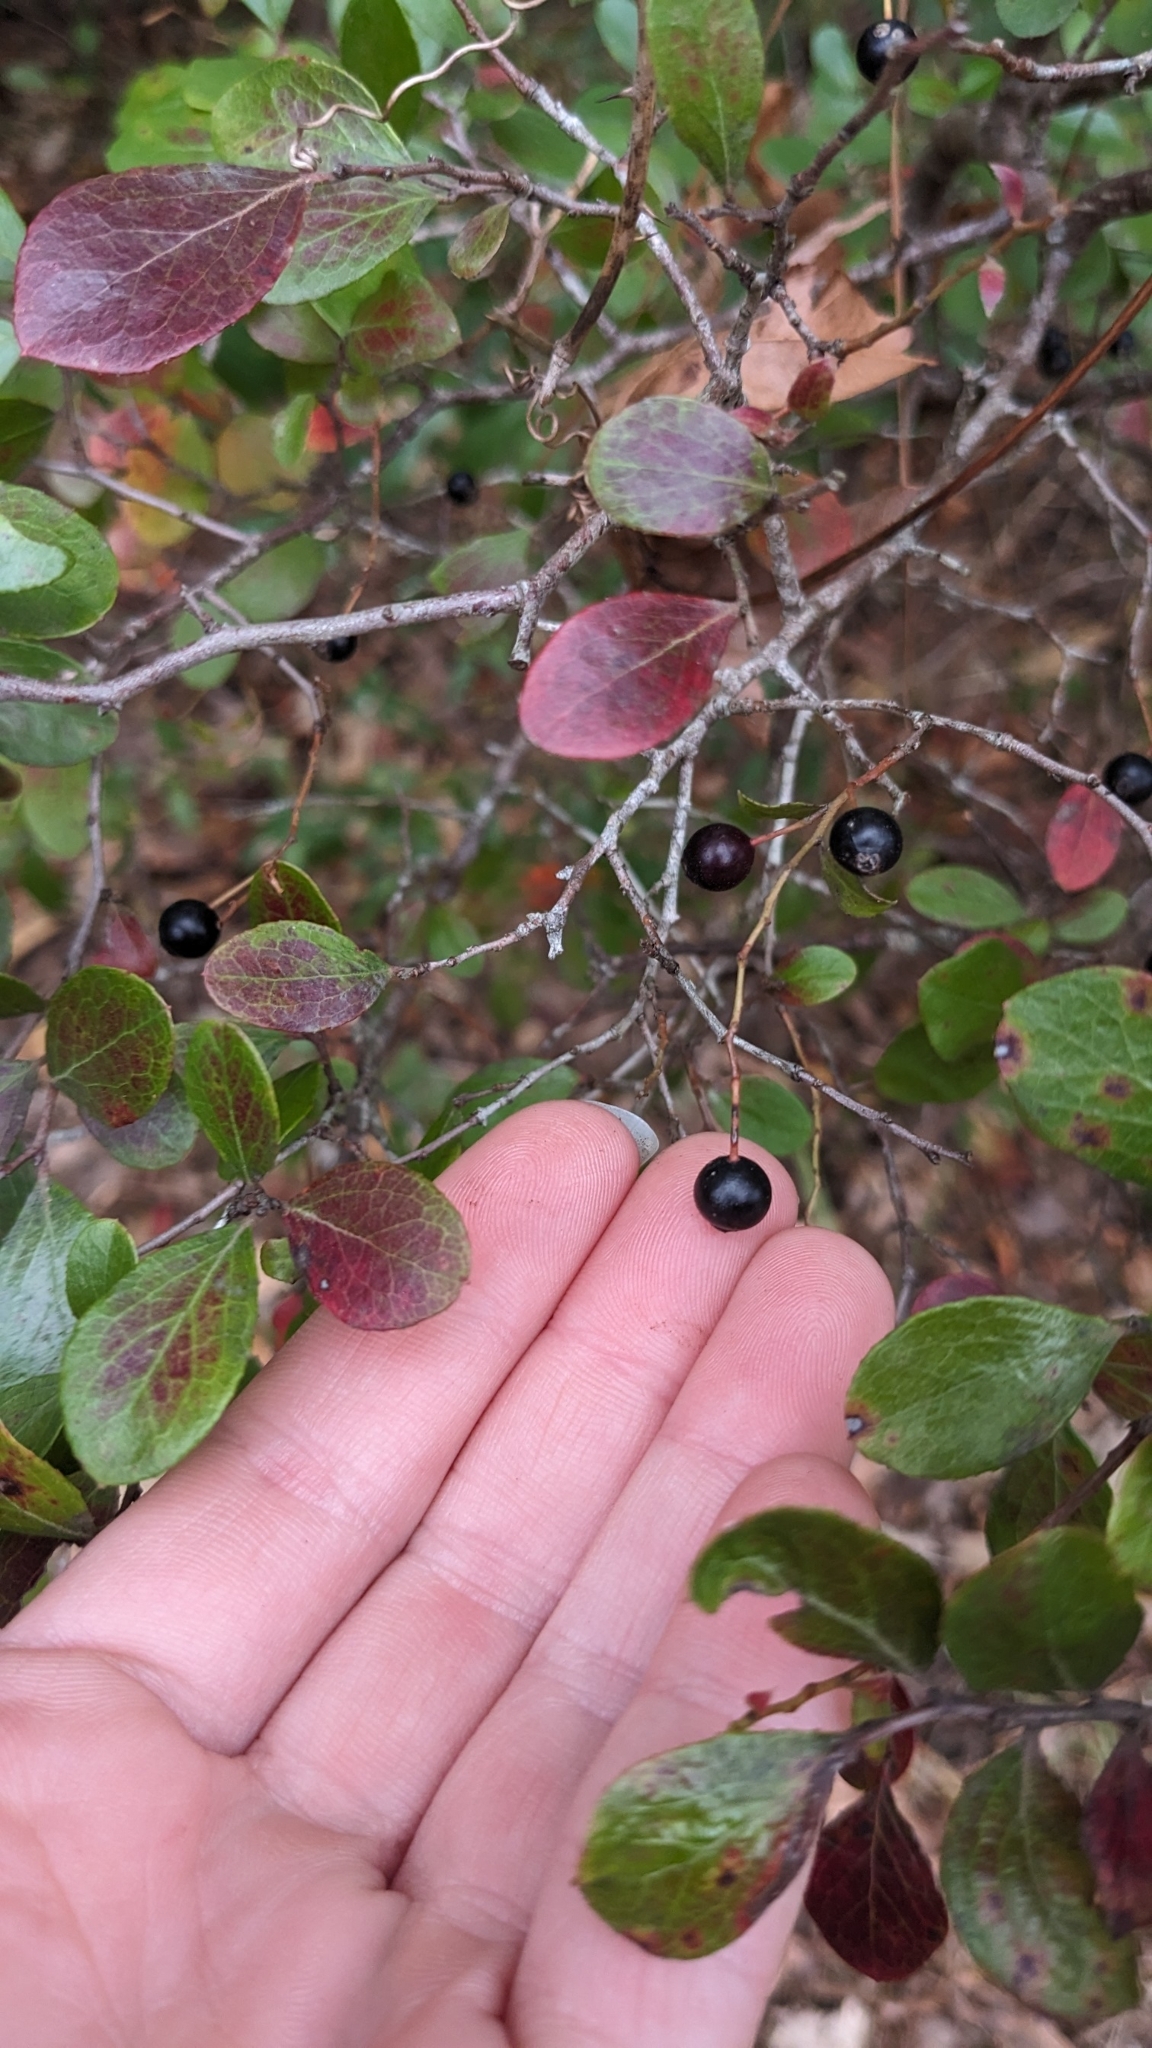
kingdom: Plantae
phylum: Tracheophyta
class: Magnoliopsida
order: Ericales
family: Ericaceae
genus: Vaccinium
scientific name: Vaccinium arboreum
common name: Farkleberry
